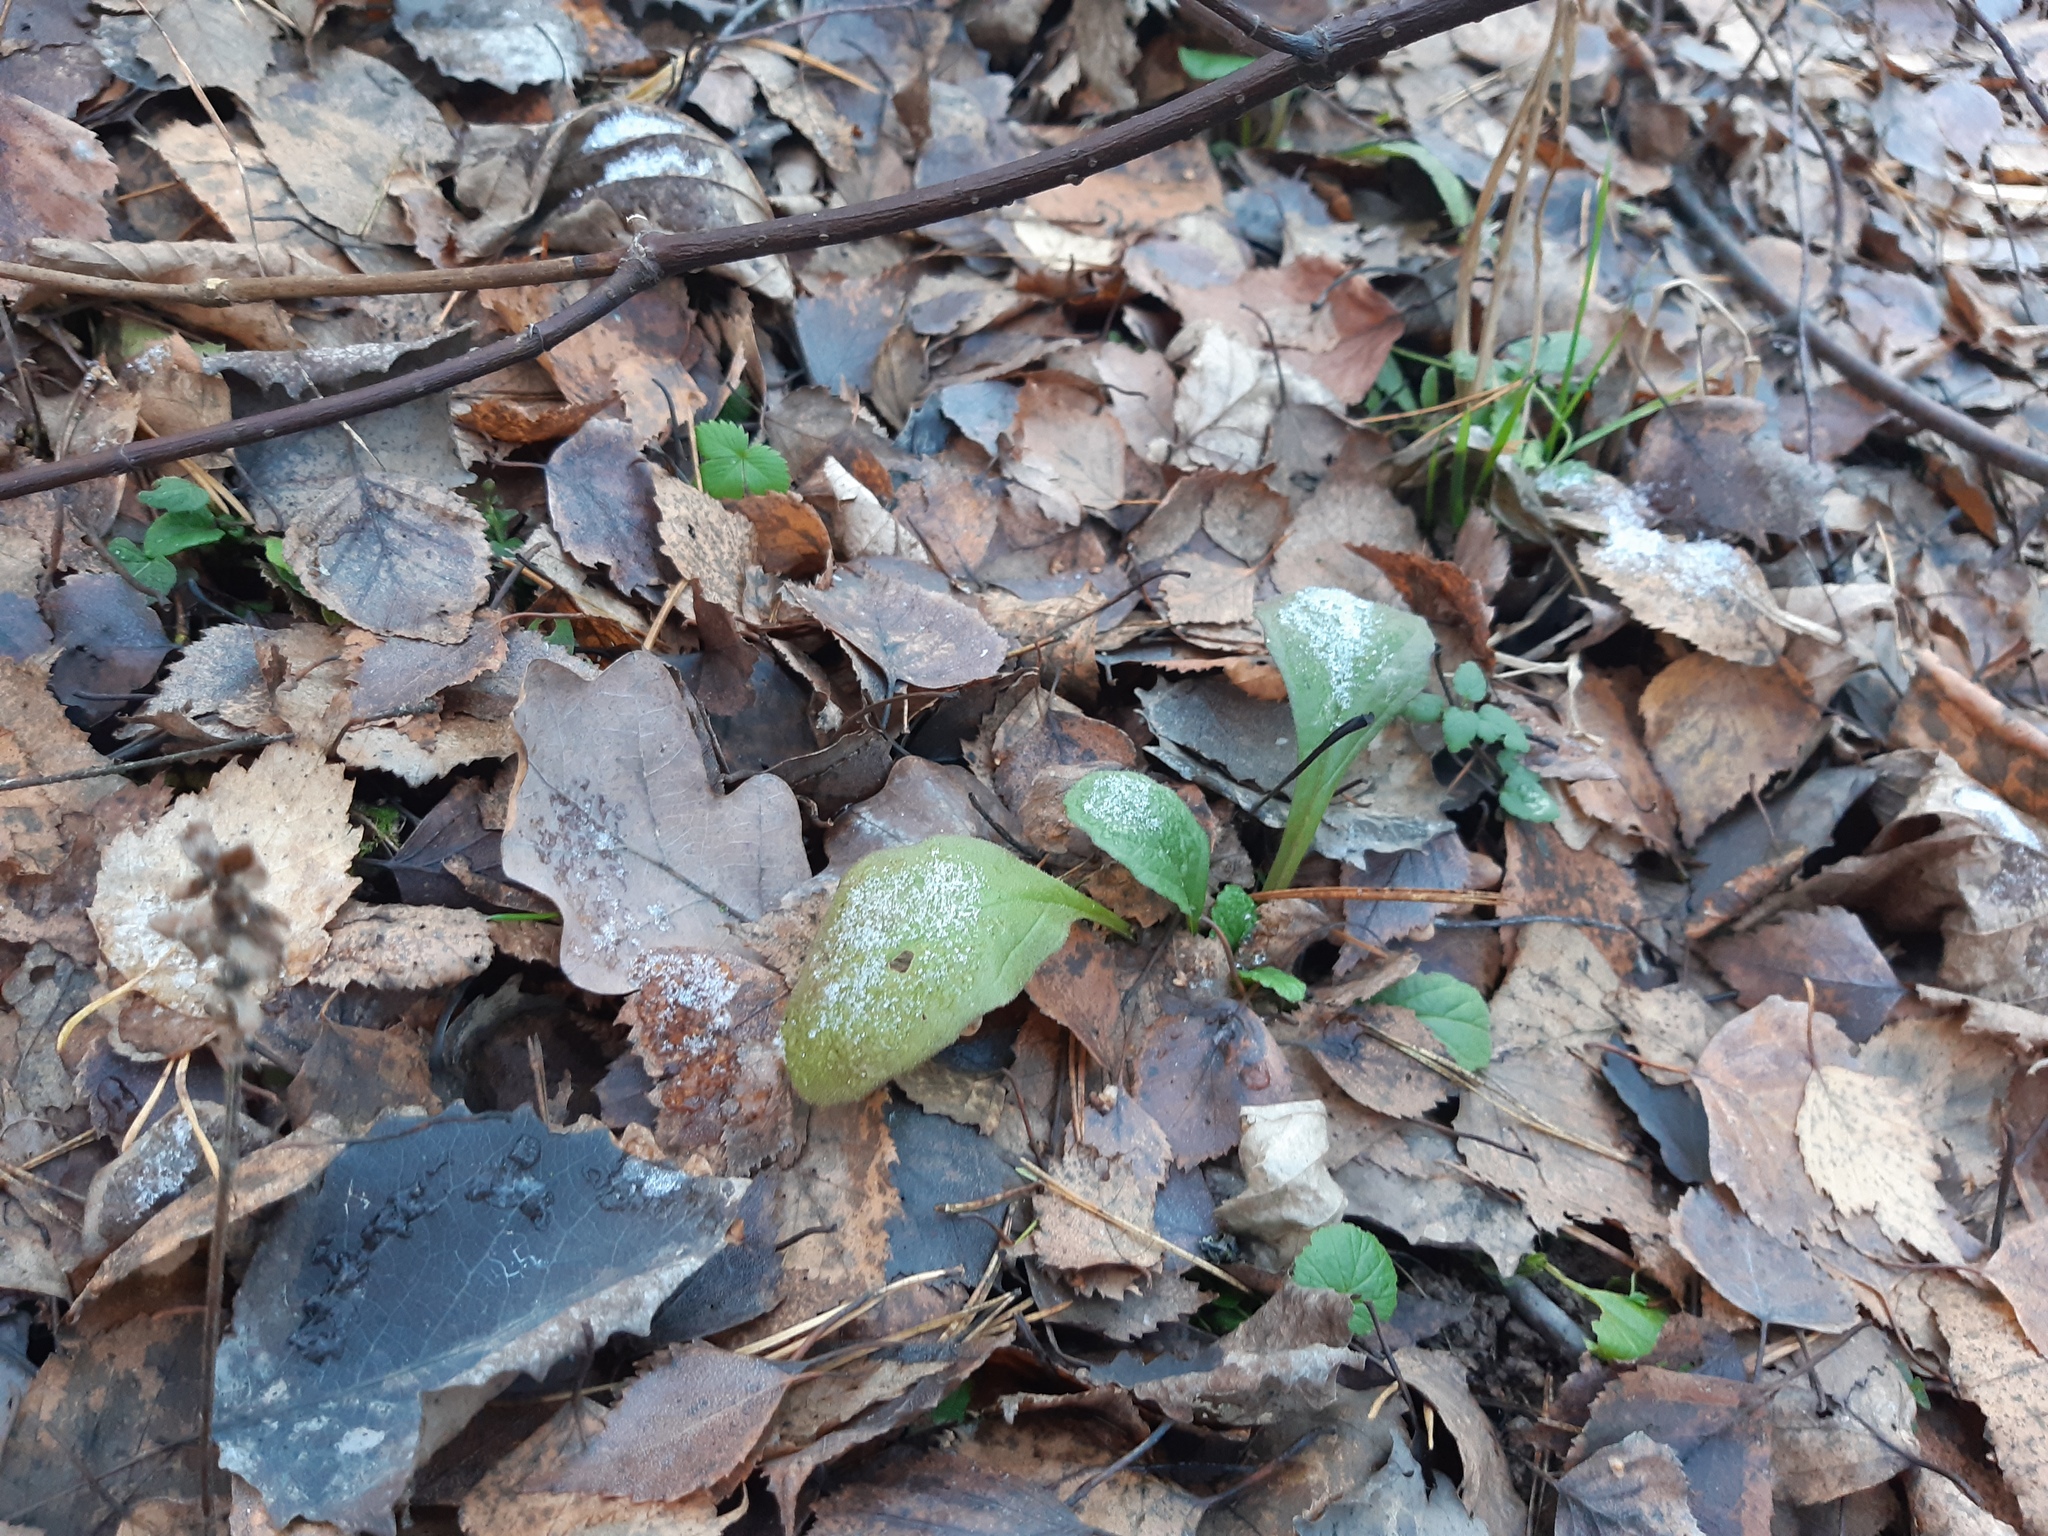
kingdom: Plantae
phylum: Tracheophyta
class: Magnoliopsida
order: Lamiales
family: Lamiaceae
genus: Ajuga
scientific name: Ajuga reptans
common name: Bugle
